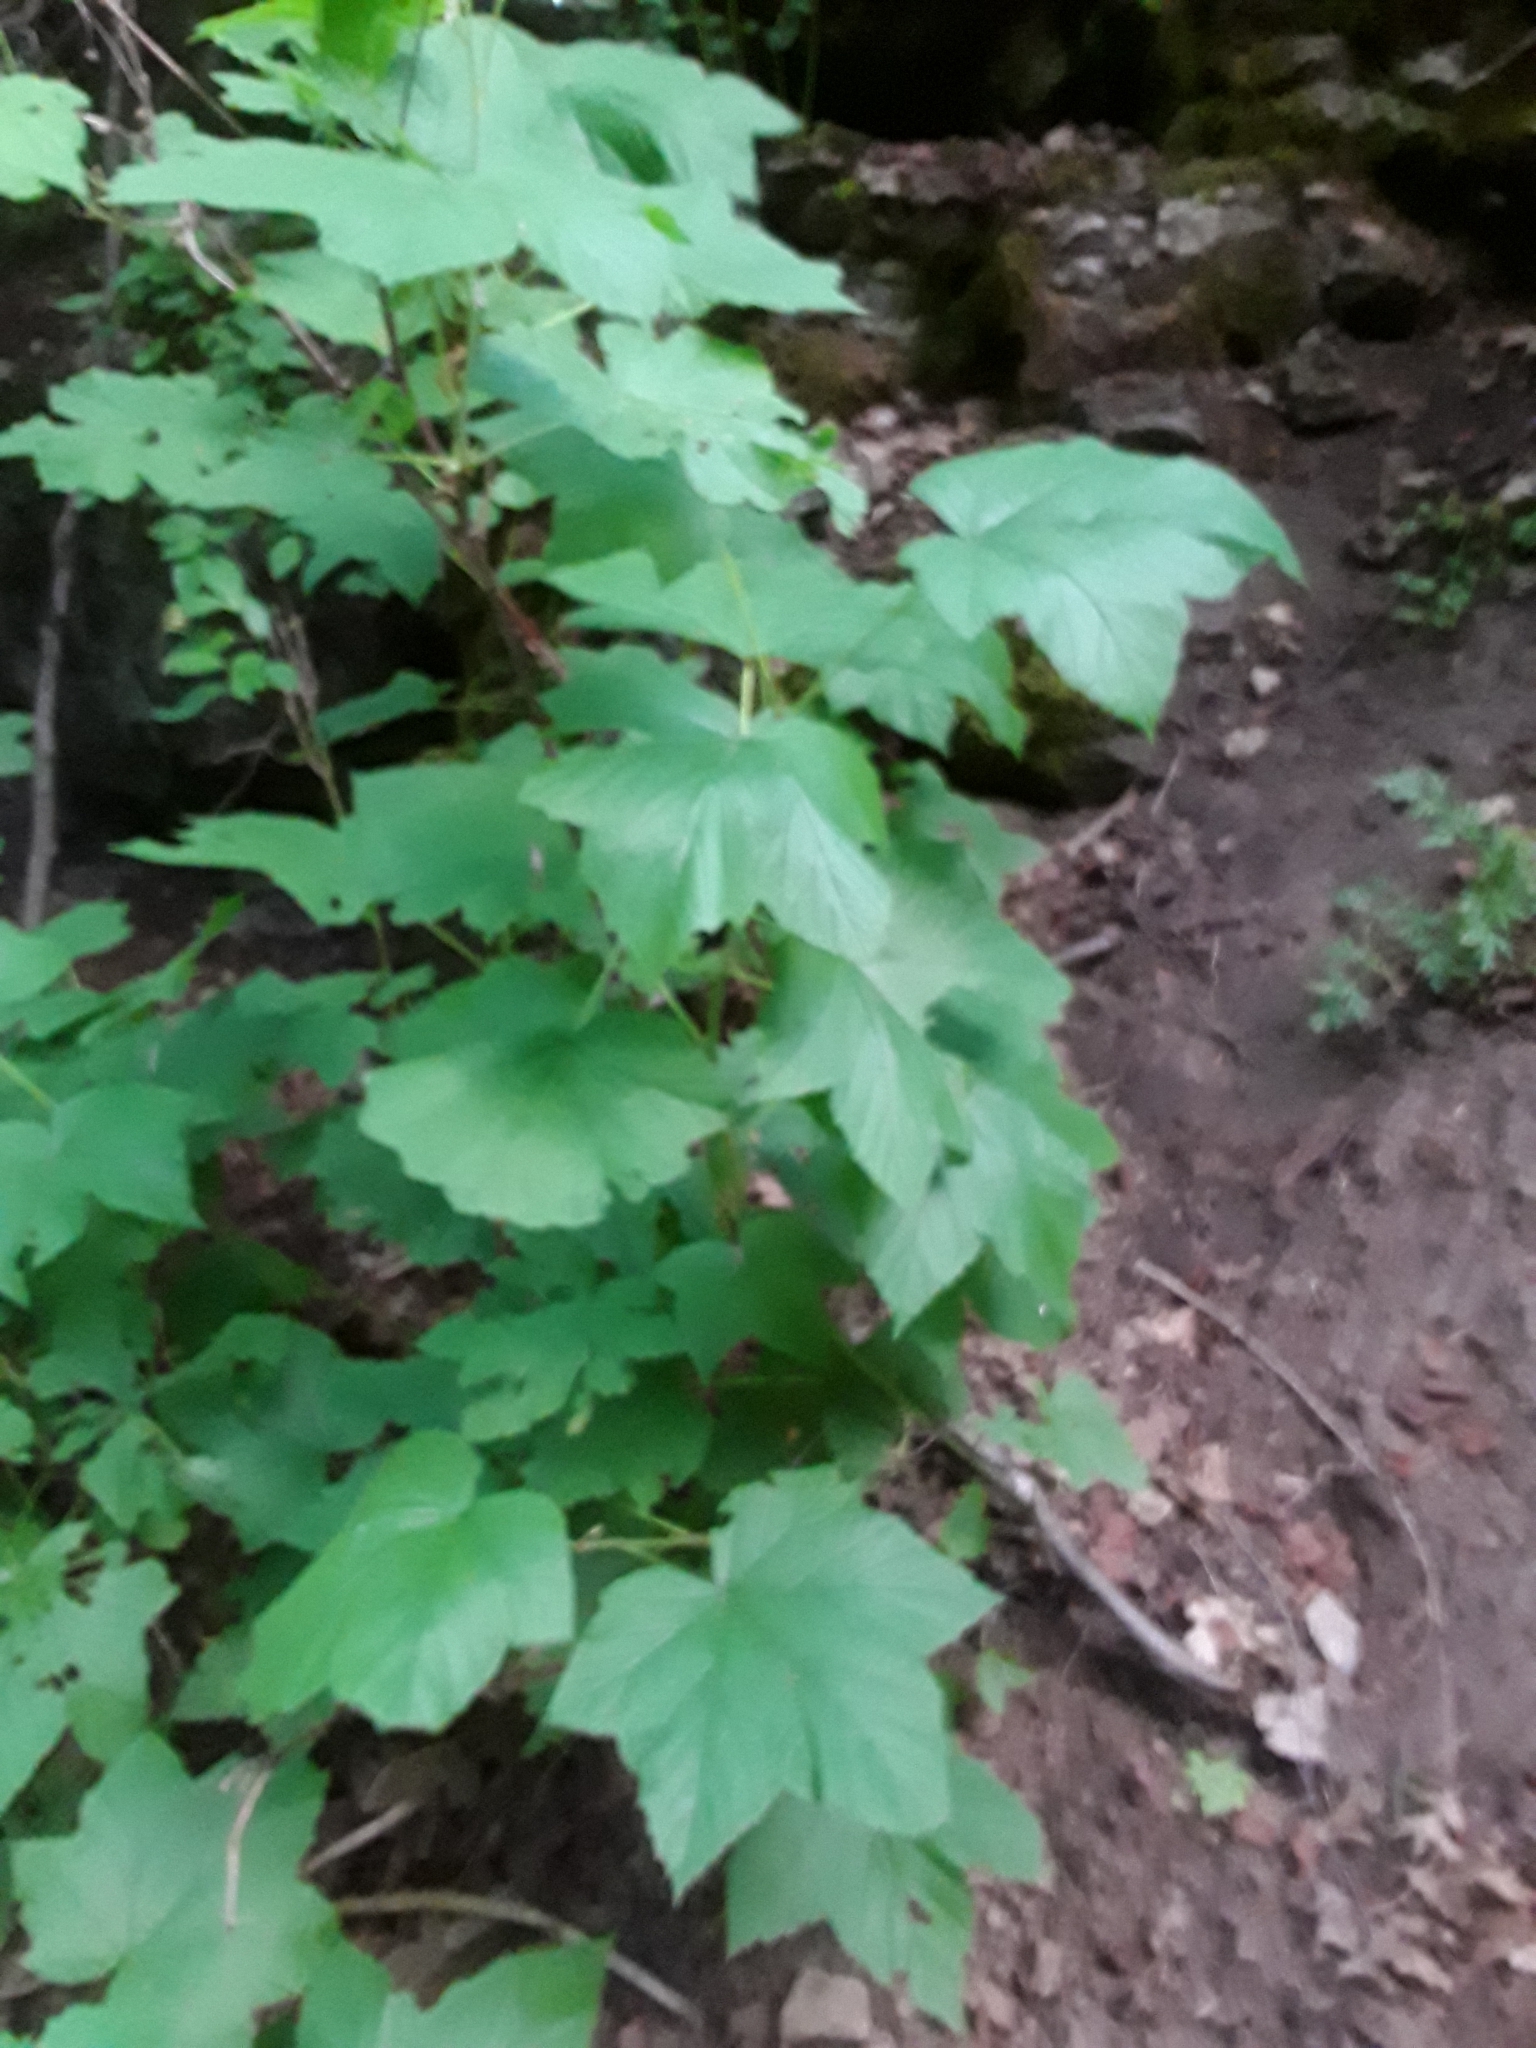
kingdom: Plantae
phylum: Tracheophyta
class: Magnoliopsida
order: Rosales
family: Rosaceae
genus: Rubus
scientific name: Rubus parviflorus
